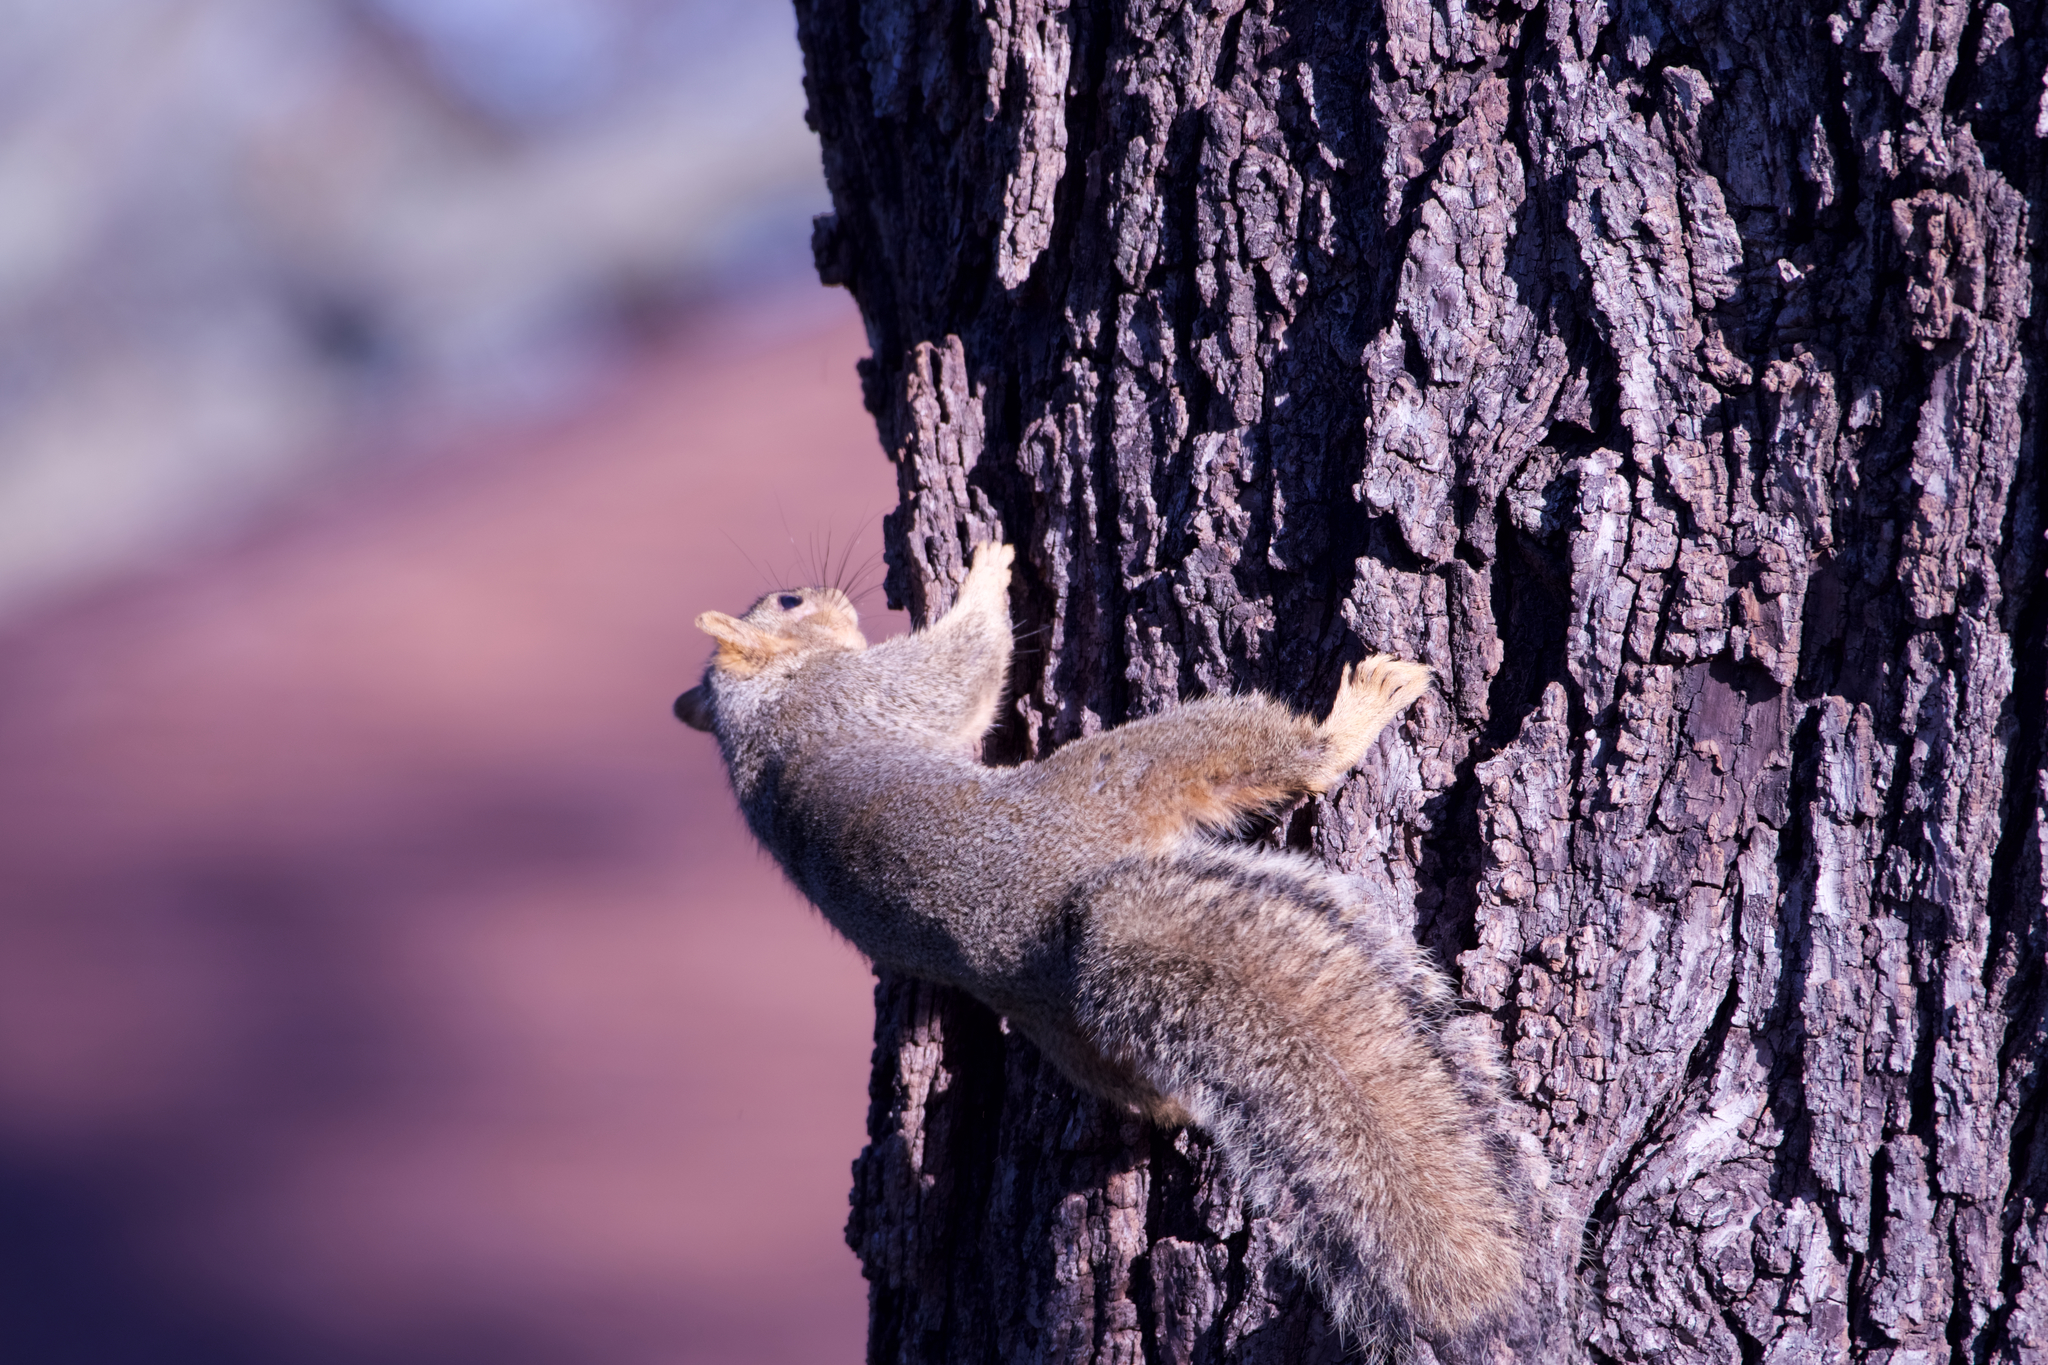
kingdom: Animalia
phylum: Chordata
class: Mammalia
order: Rodentia
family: Sciuridae
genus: Sciurus
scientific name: Sciurus niger
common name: Fox squirrel
